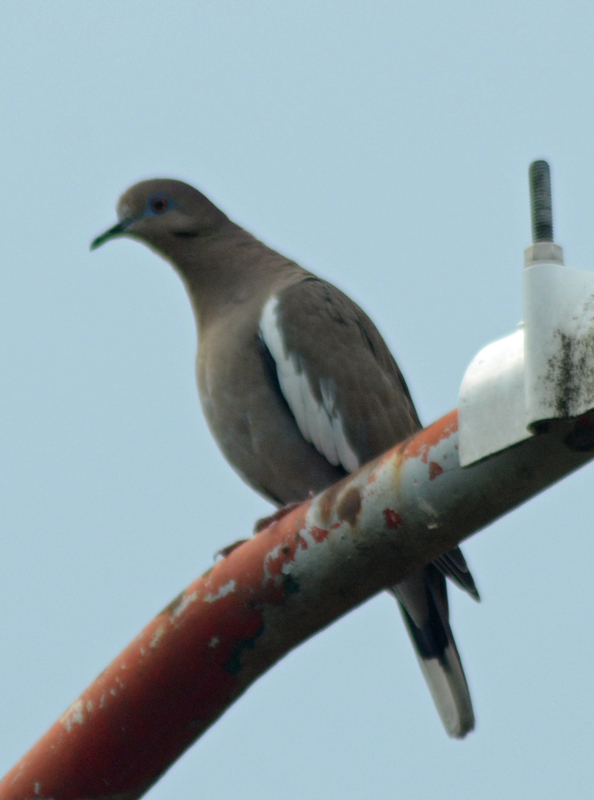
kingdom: Animalia
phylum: Chordata
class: Aves
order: Columbiformes
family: Columbidae
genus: Zenaida
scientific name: Zenaida asiatica
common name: White-winged dove
